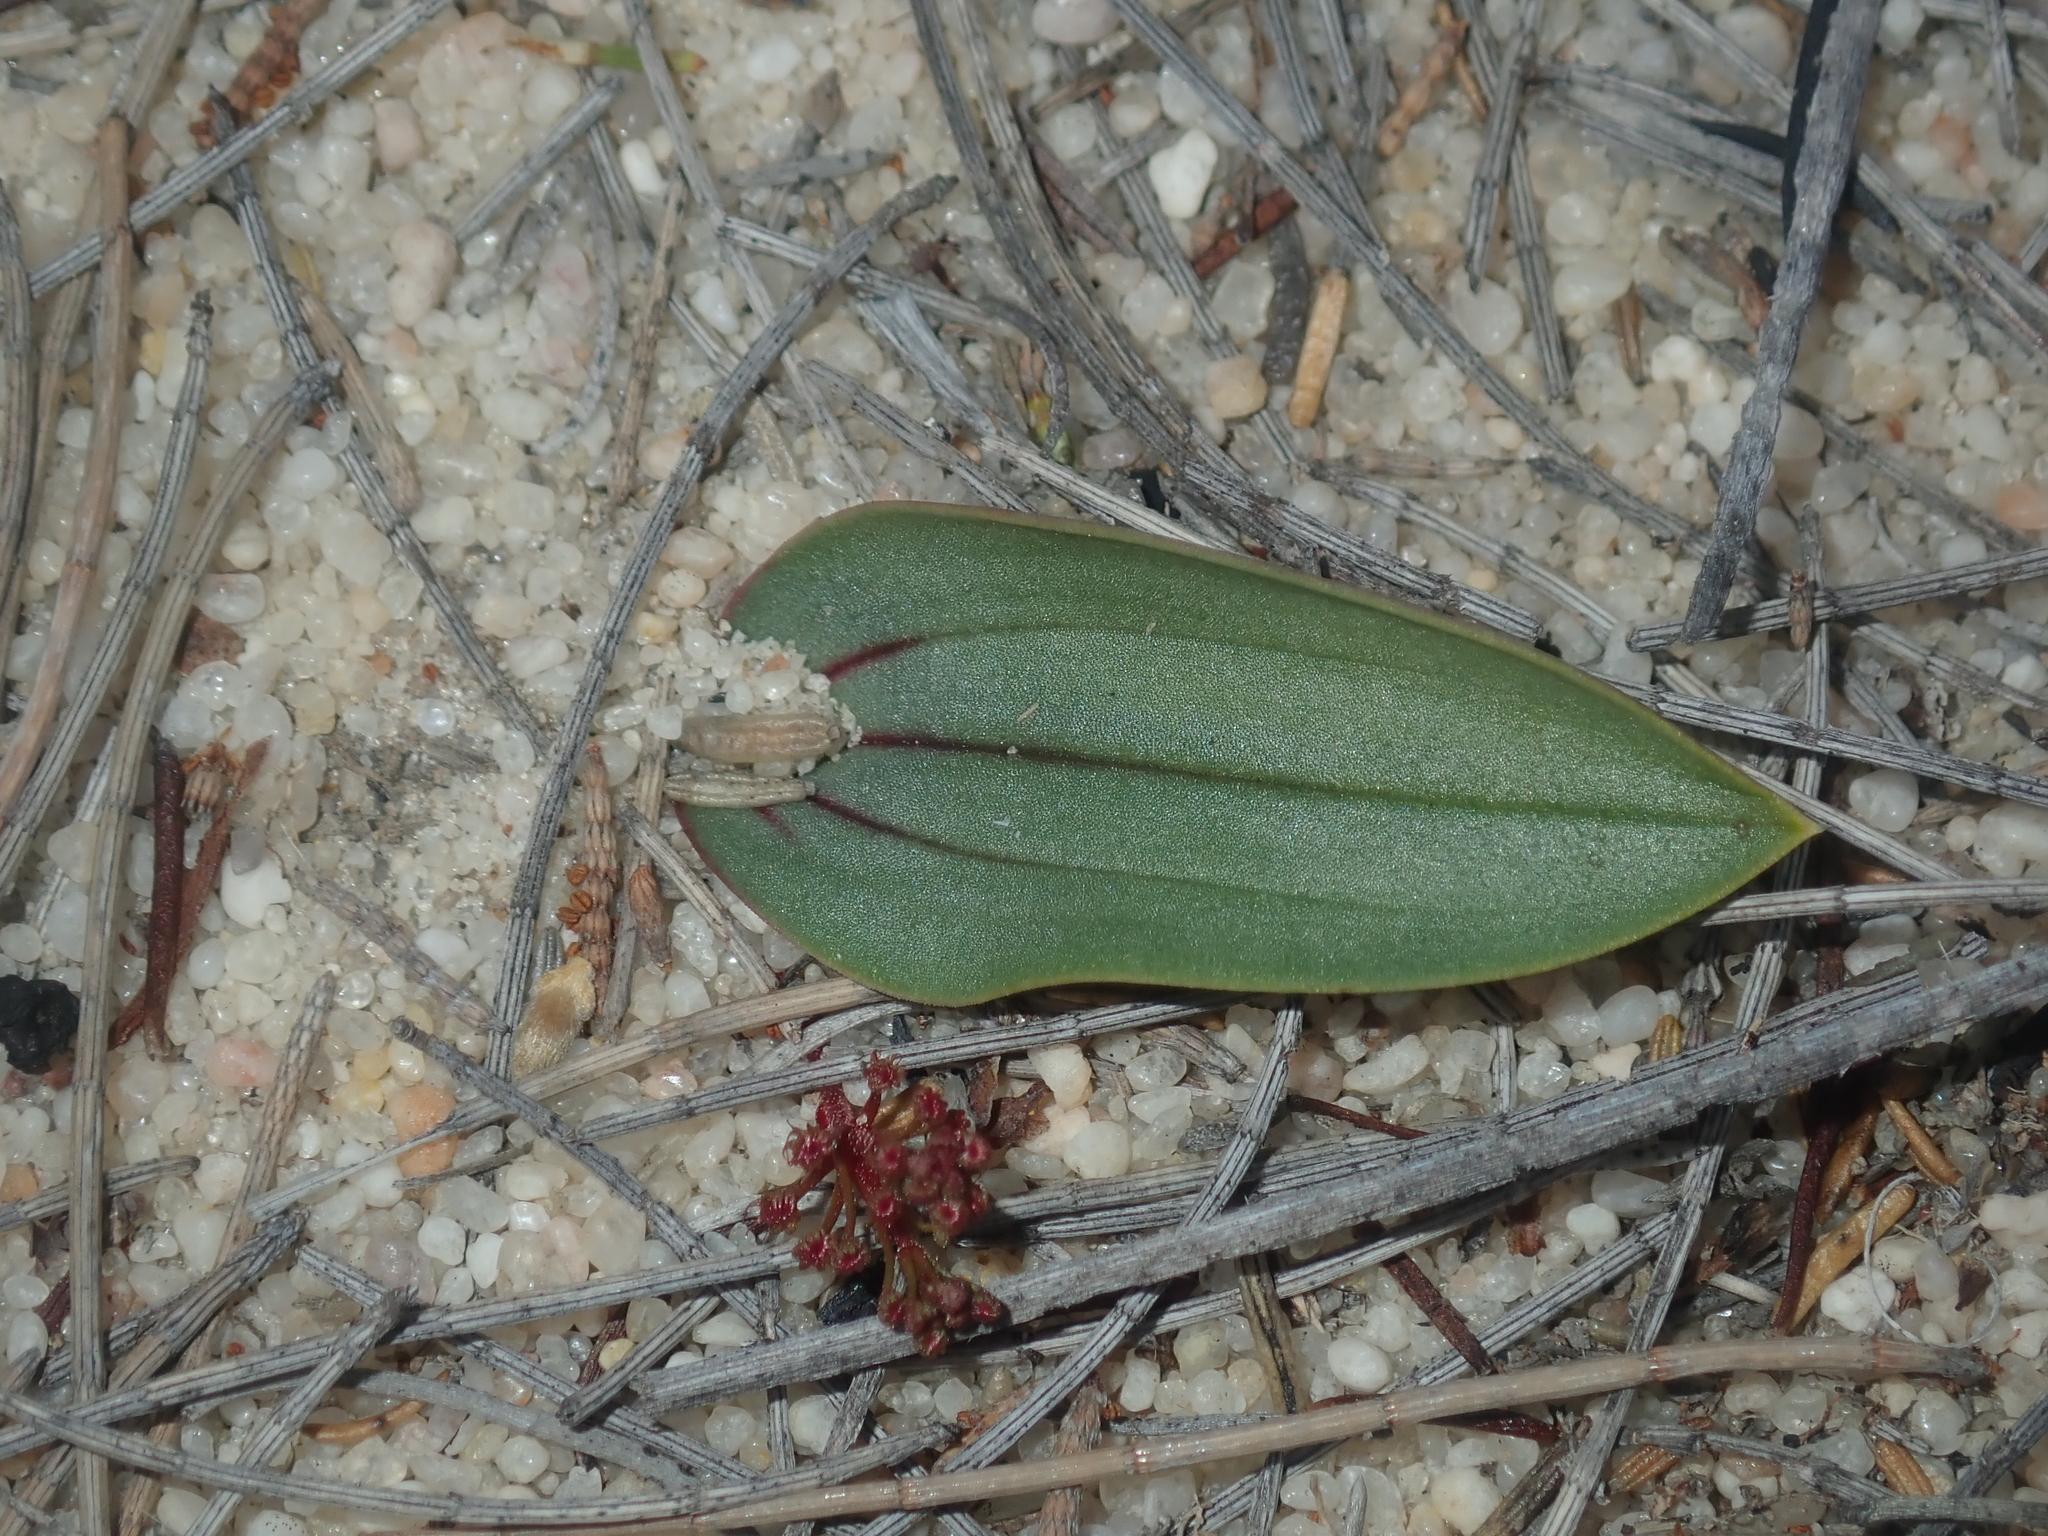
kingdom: Plantae
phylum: Tracheophyta
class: Liliopsida
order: Asparagales
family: Orchidaceae
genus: Leporella
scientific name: Leporella fimbriata
